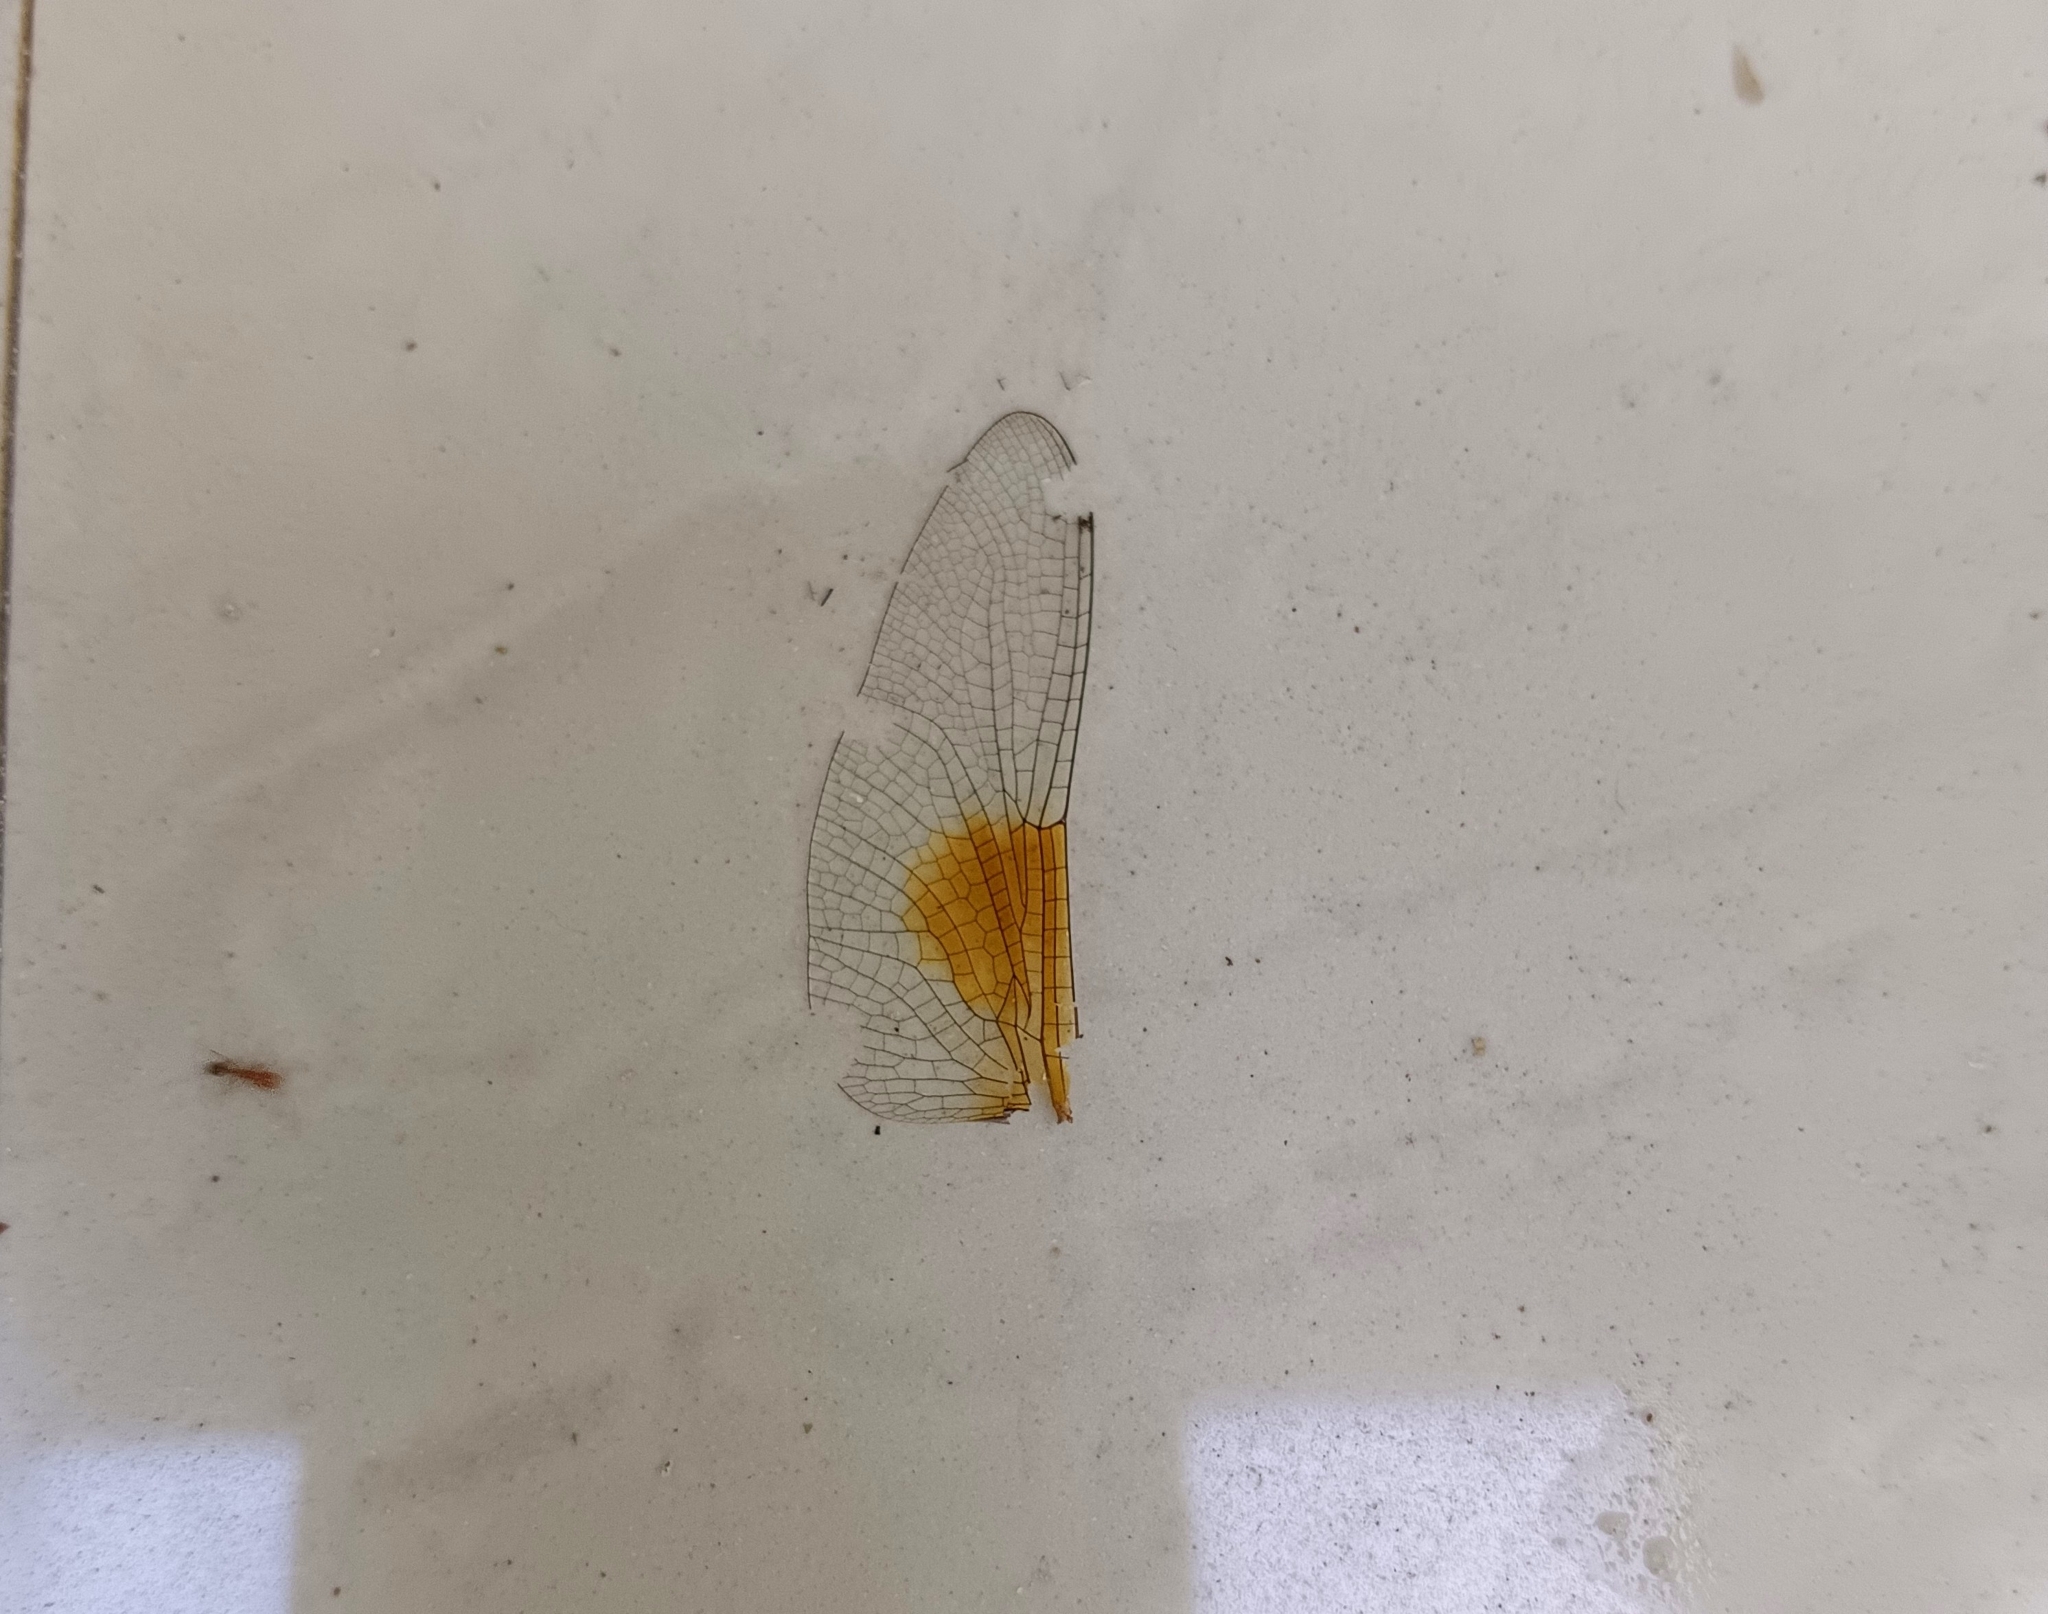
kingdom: Animalia
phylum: Arthropoda
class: Insecta
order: Odonata
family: Libellulidae
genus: Tholymis
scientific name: Tholymis tillarga
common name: Coral-tailed cloud wing
